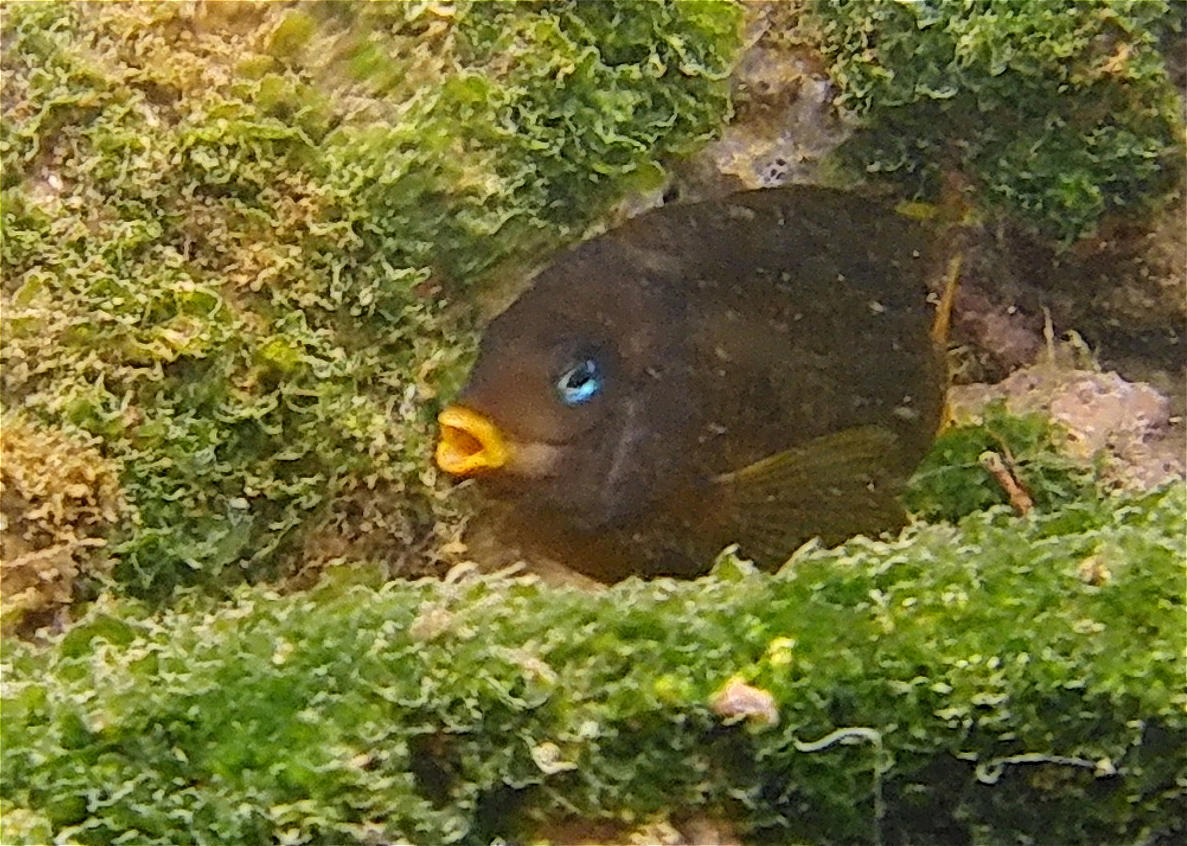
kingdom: Animalia
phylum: Chordata
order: Perciformes
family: Pomacentridae
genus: Stegastes
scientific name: Stegastes arcifrons
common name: Galapagos gregory
